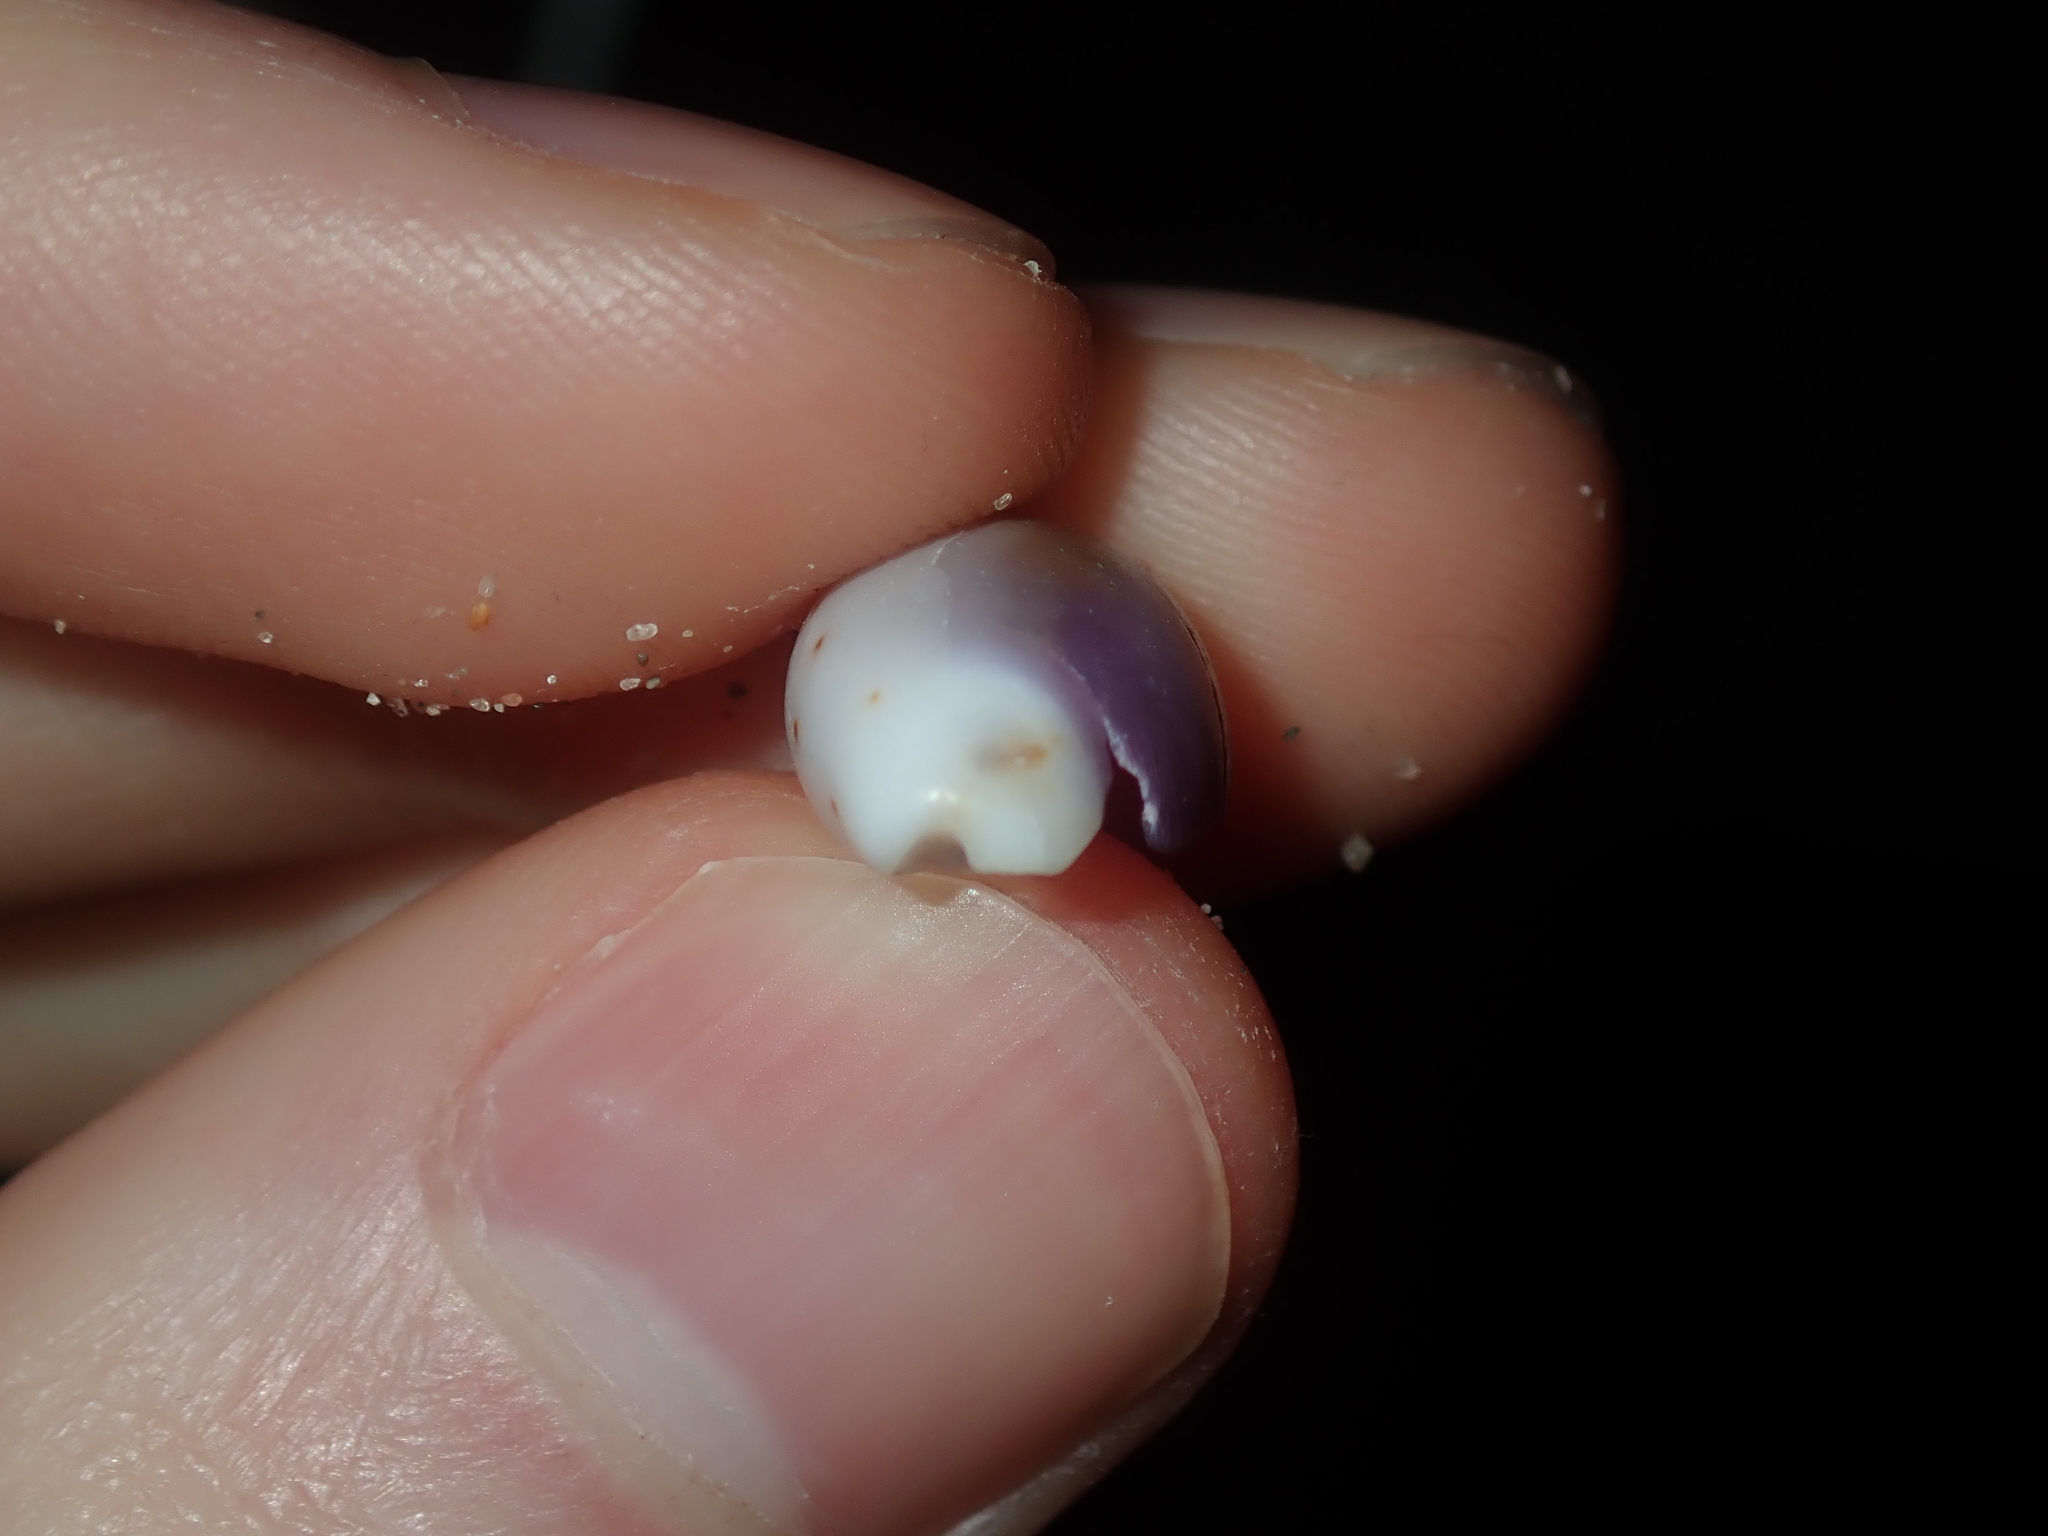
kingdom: Animalia
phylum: Mollusca
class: Gastropoda
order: Littorinimorpha
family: Cypraeidae
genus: Purpuradusta
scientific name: Purpuradusta gracilis
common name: Graceful cowrie
